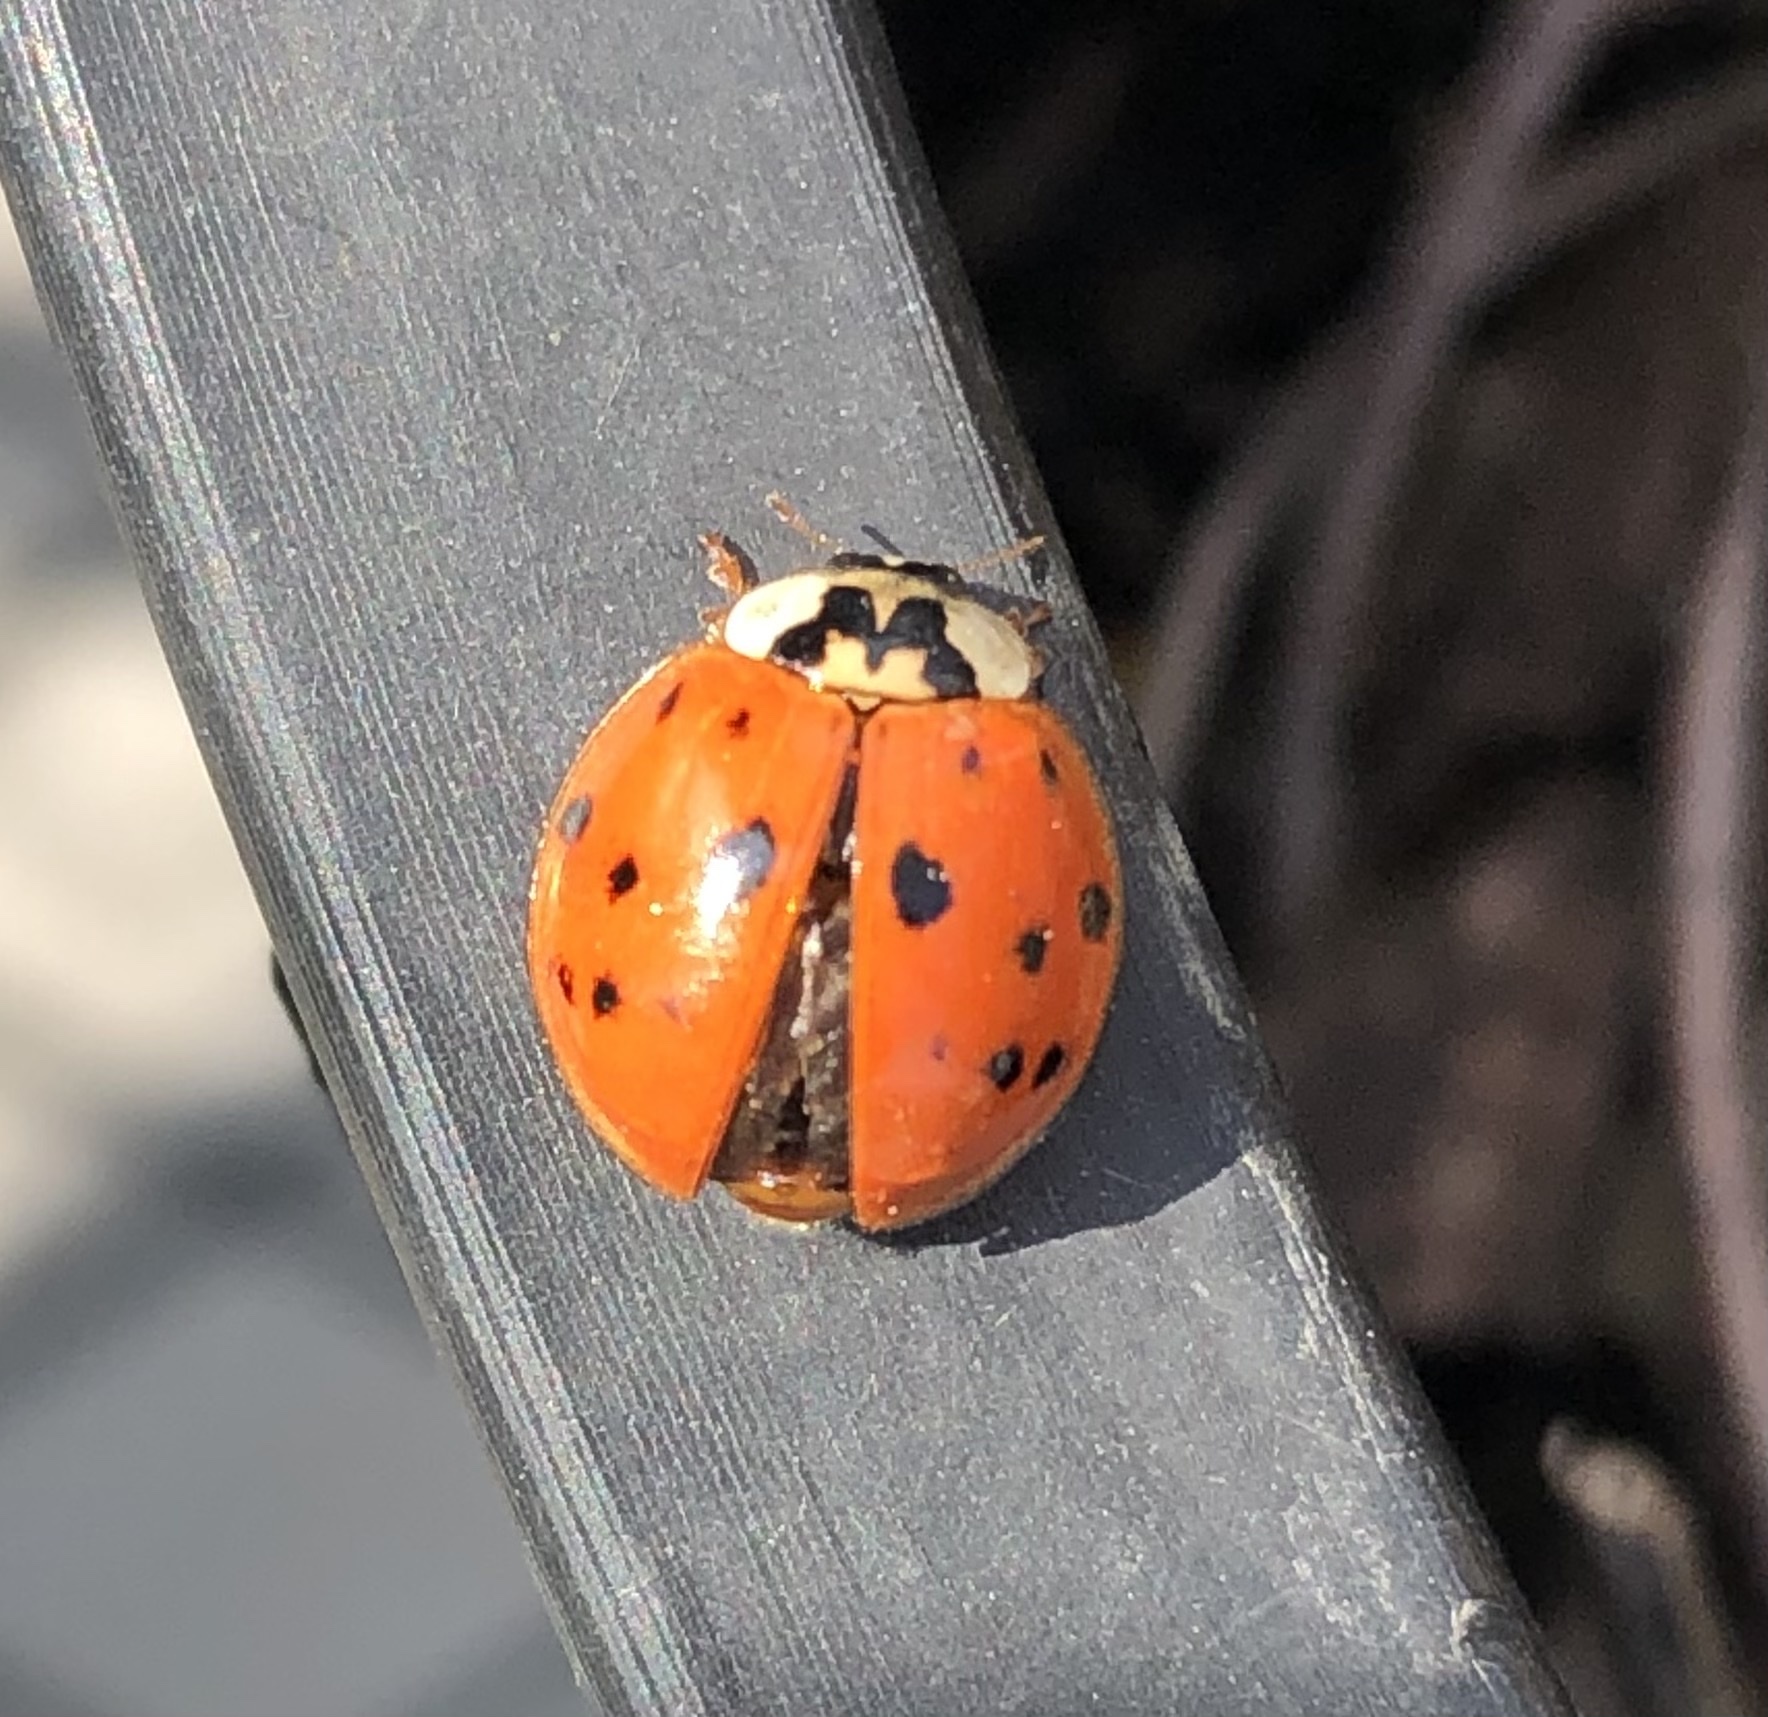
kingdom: Animalia
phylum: Arthropoda
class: Insecta
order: Coleoptera
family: Coccinellidae
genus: Harmonia
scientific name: Harmonia axyridis
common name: Harlequin ladybird
